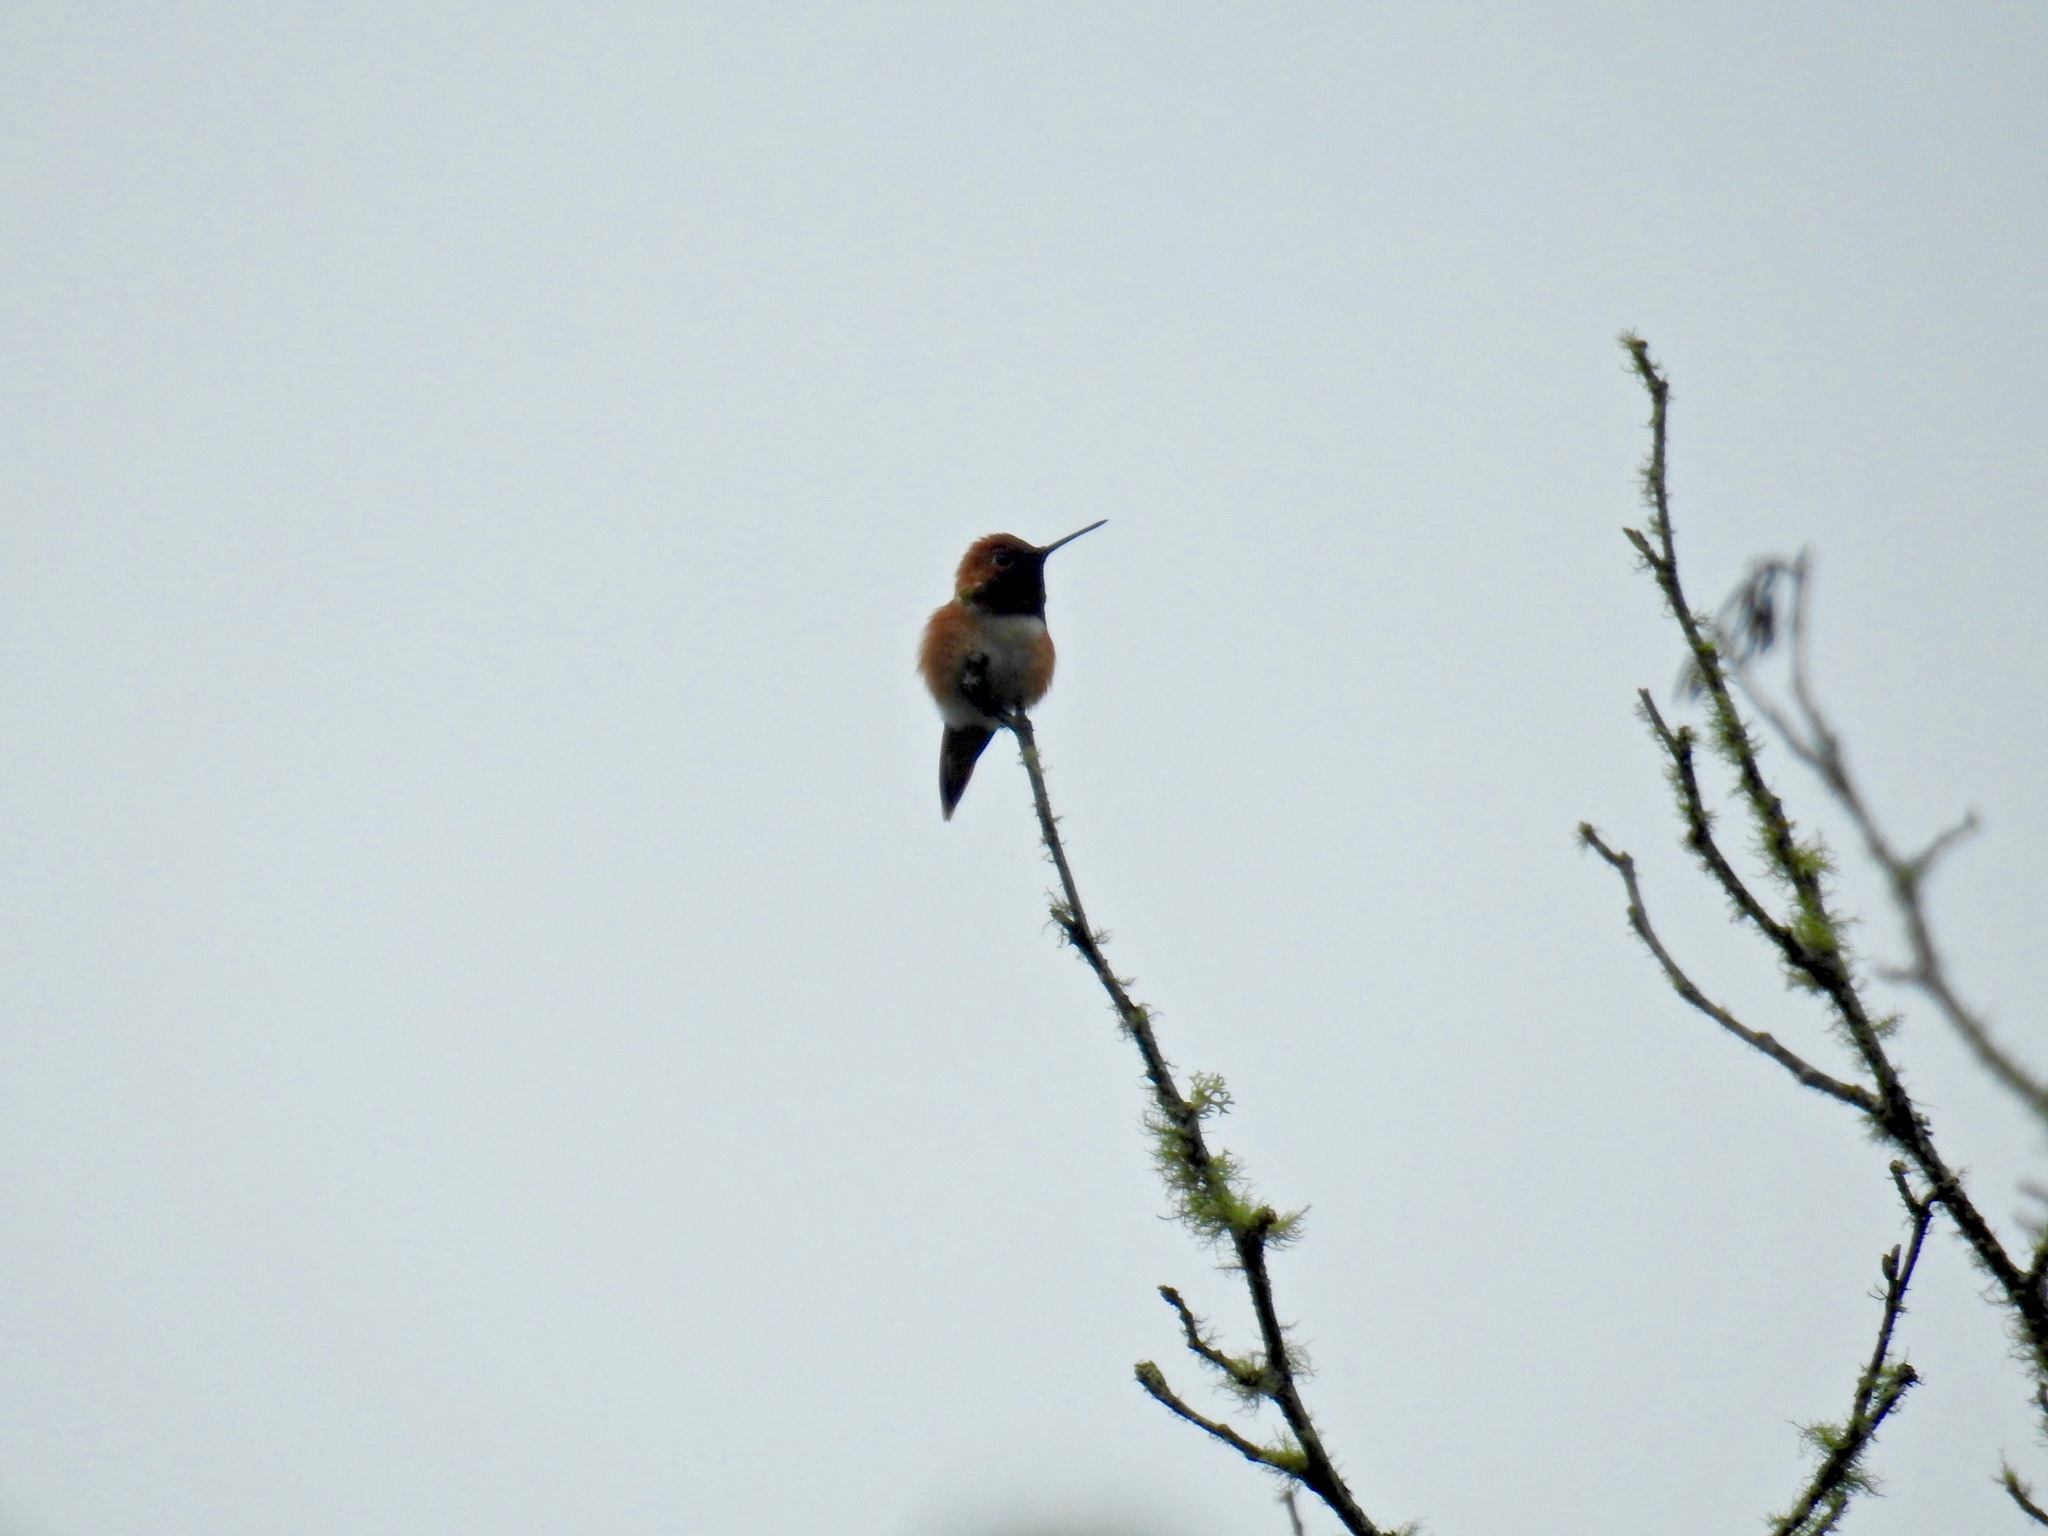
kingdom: Animalia
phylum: Chordata
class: Aves
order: Apodiformes
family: Trochilidae
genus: Selasphorus
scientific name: Selasphorus rufus
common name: Rufous hummingbird
